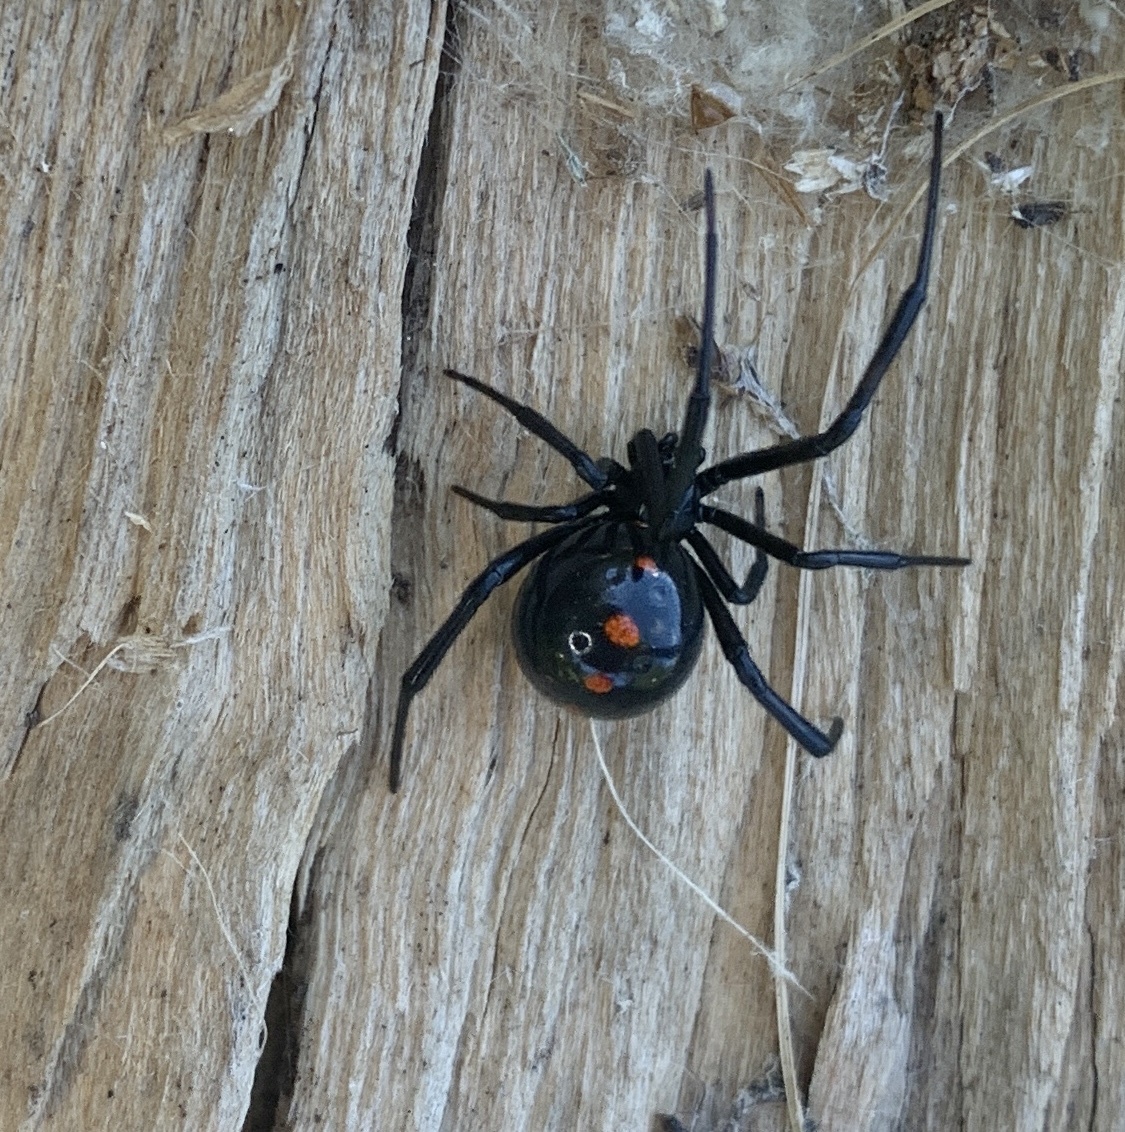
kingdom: Animalia
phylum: Arthropoda
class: Arachnida
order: Araneae
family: Theridiidae
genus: Latrodectus
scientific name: Latrodectus variolus
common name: Northern black widow
